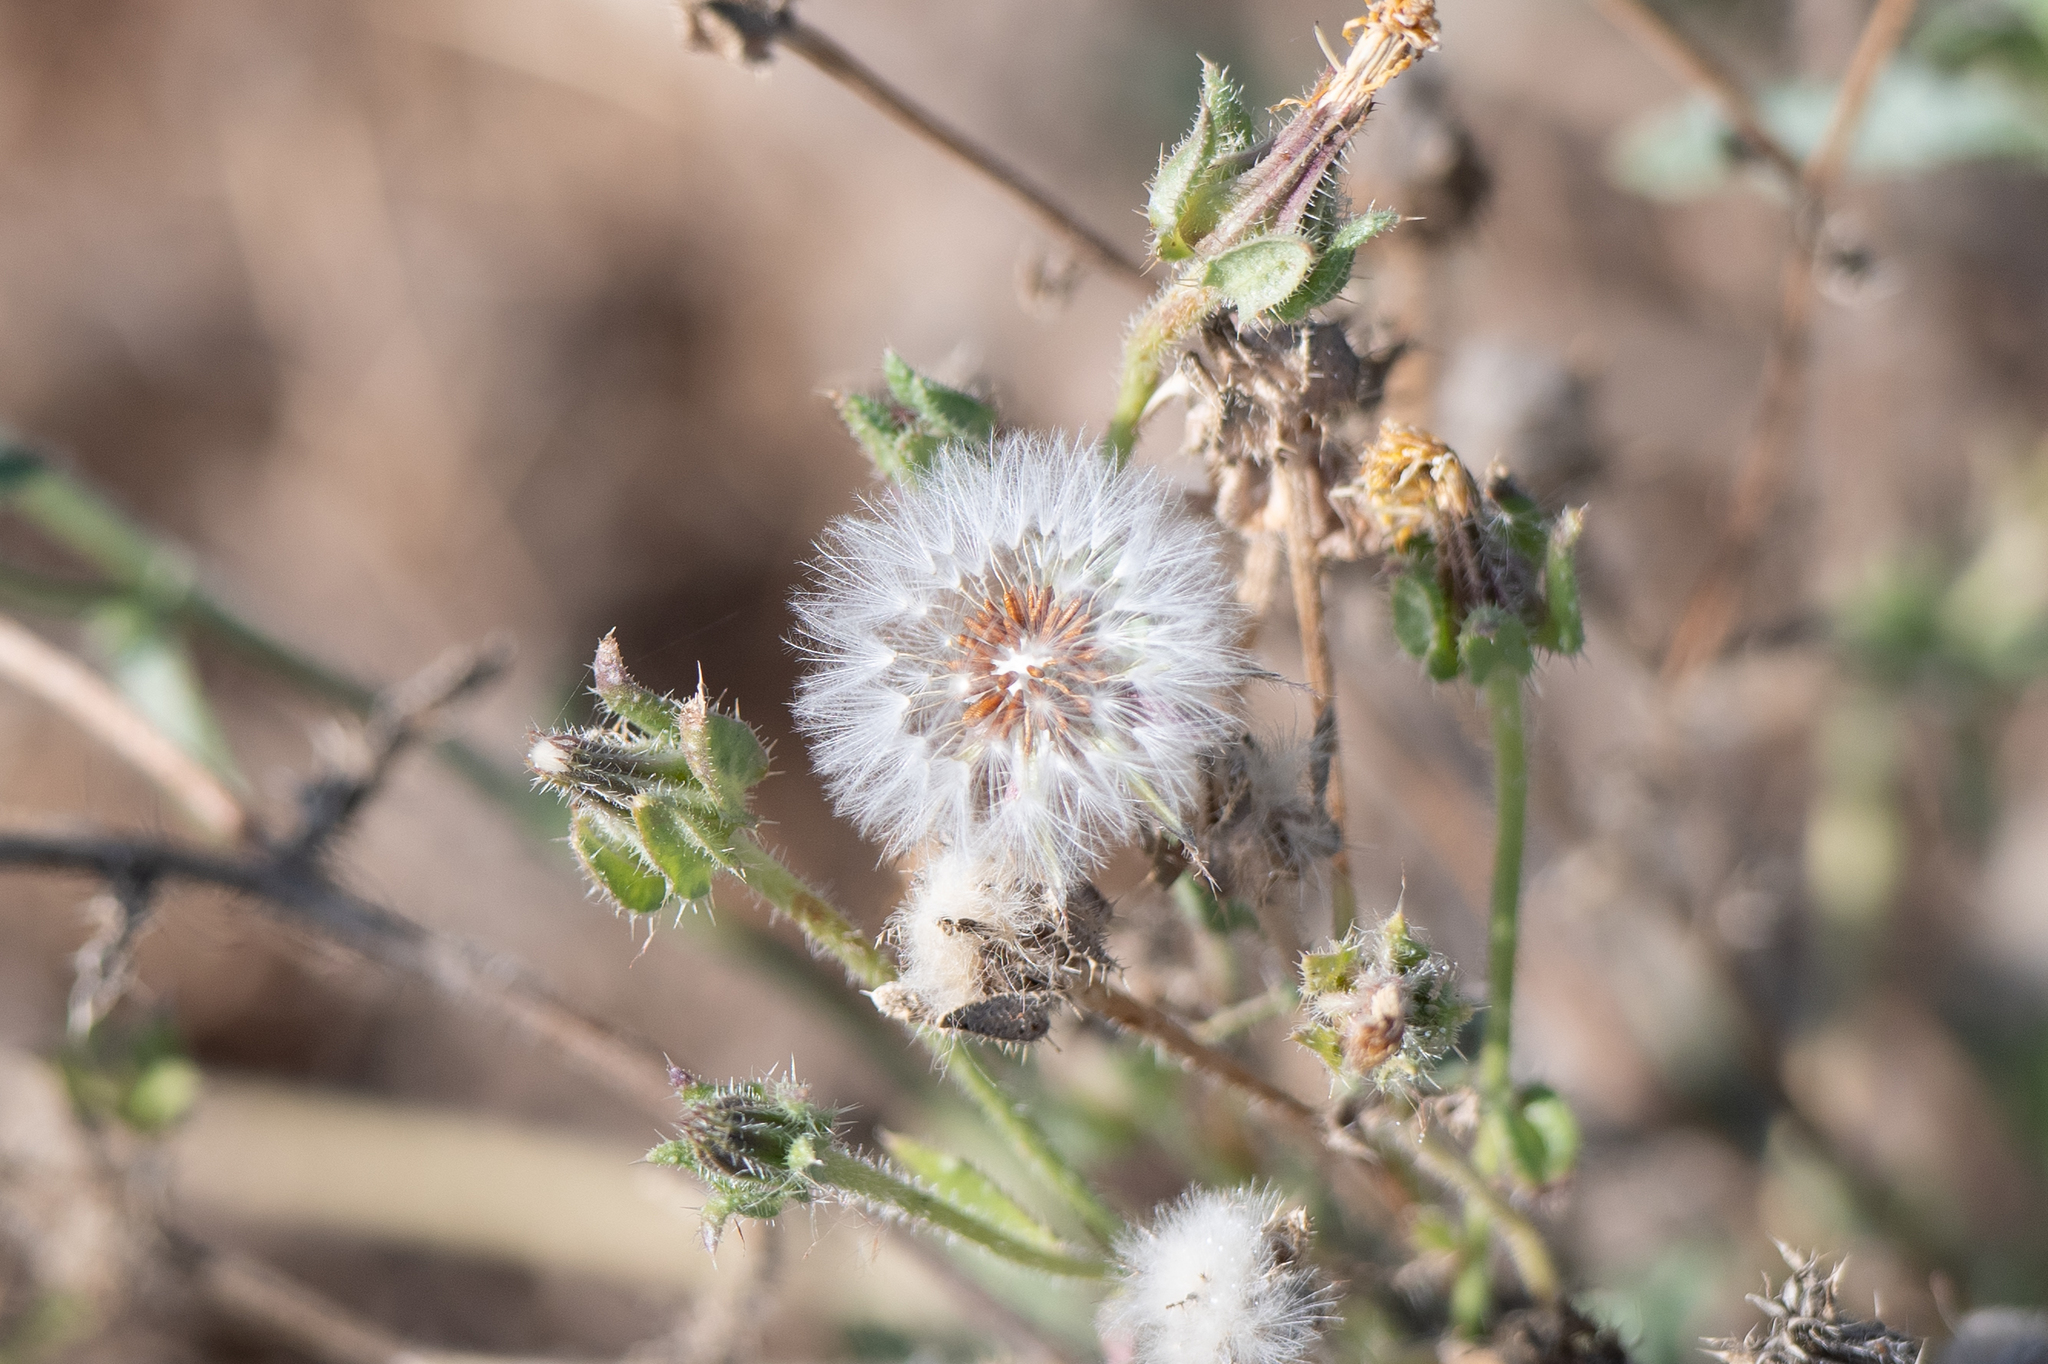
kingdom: Plantae
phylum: Tracheophyta
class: Magnoliopsida
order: Asterales
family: Asteraceae
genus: Helminthotheca
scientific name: Helminthotheca echioides
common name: Ox-tongue
